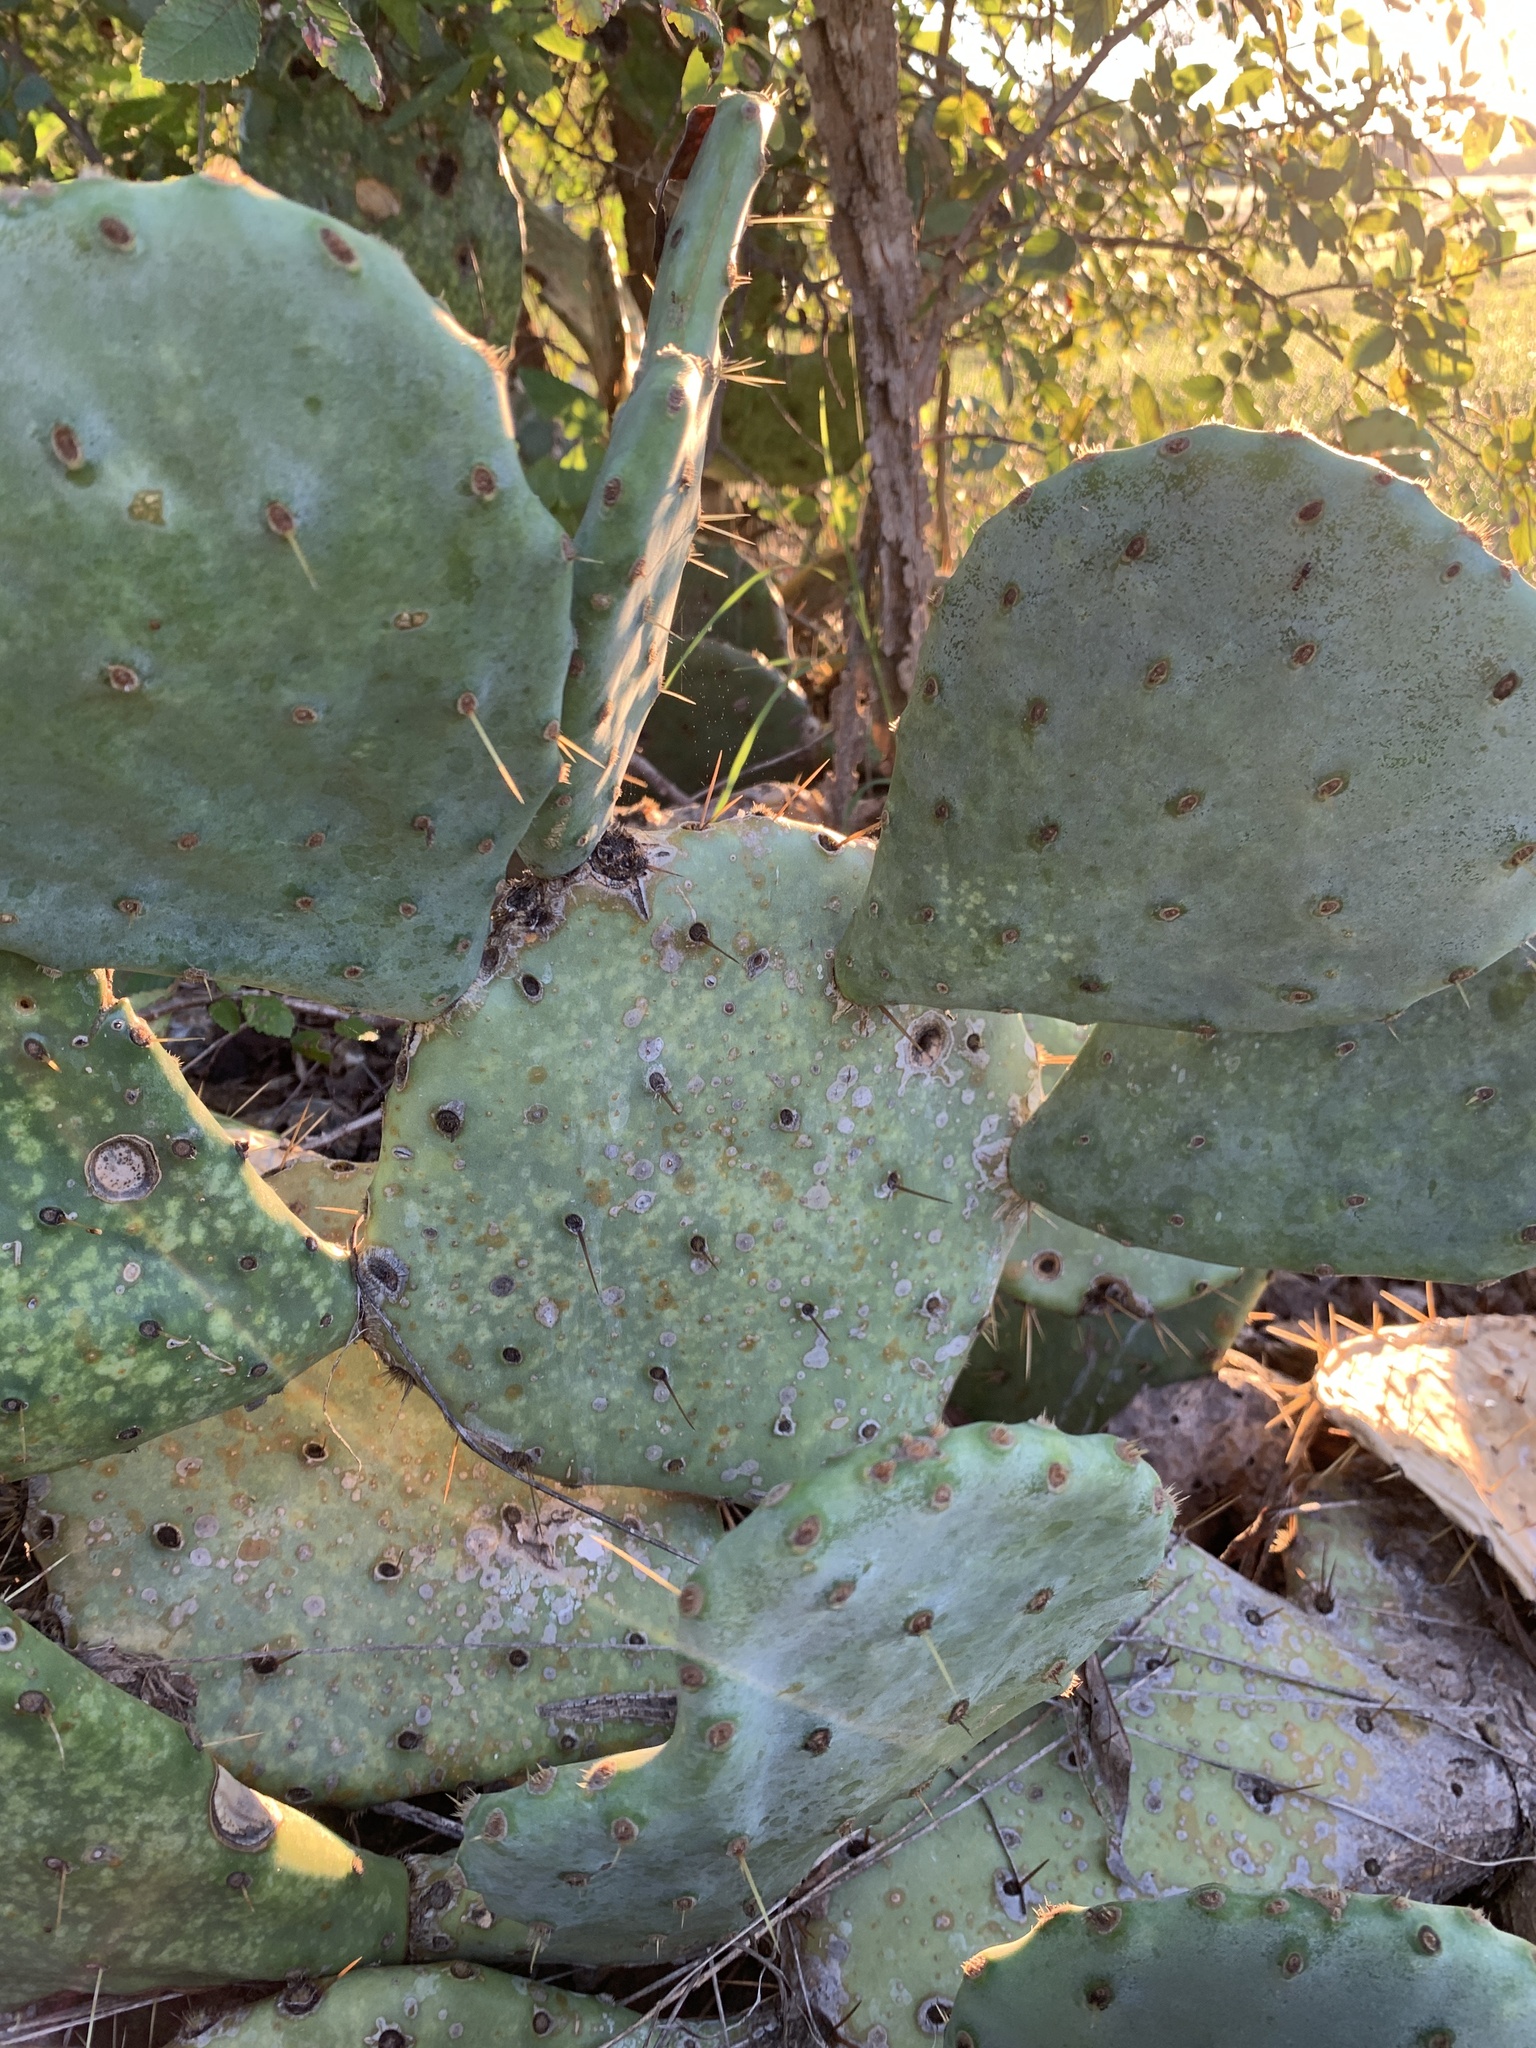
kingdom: Plantae
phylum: Tracheophyta
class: Magnoliopsida
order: Caryophyllales
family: Cactaceae
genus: Opuntia
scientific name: Opuntia orbiculata
